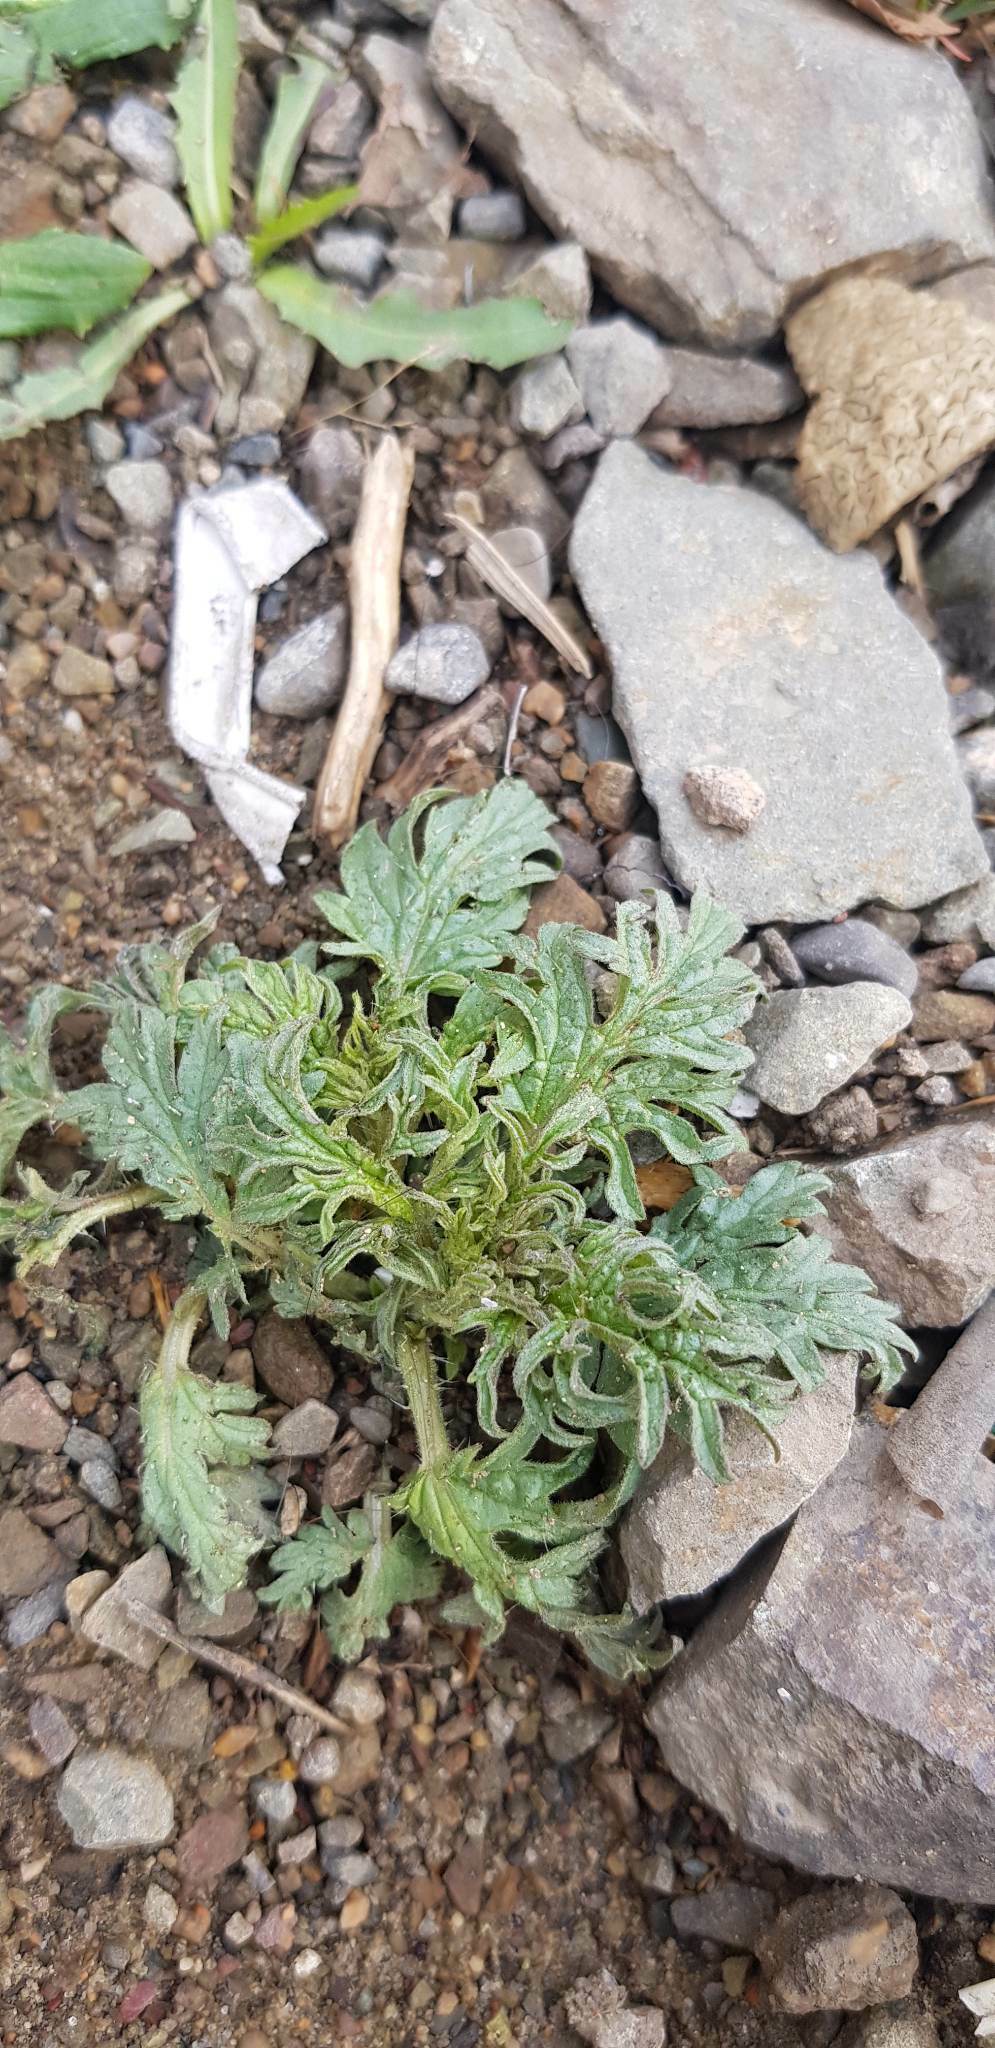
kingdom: Plantae
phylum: Tracheophyta
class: Magnoliopsida
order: Rosales
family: Urticaceae
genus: Urtica
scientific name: Urtica cannabina
